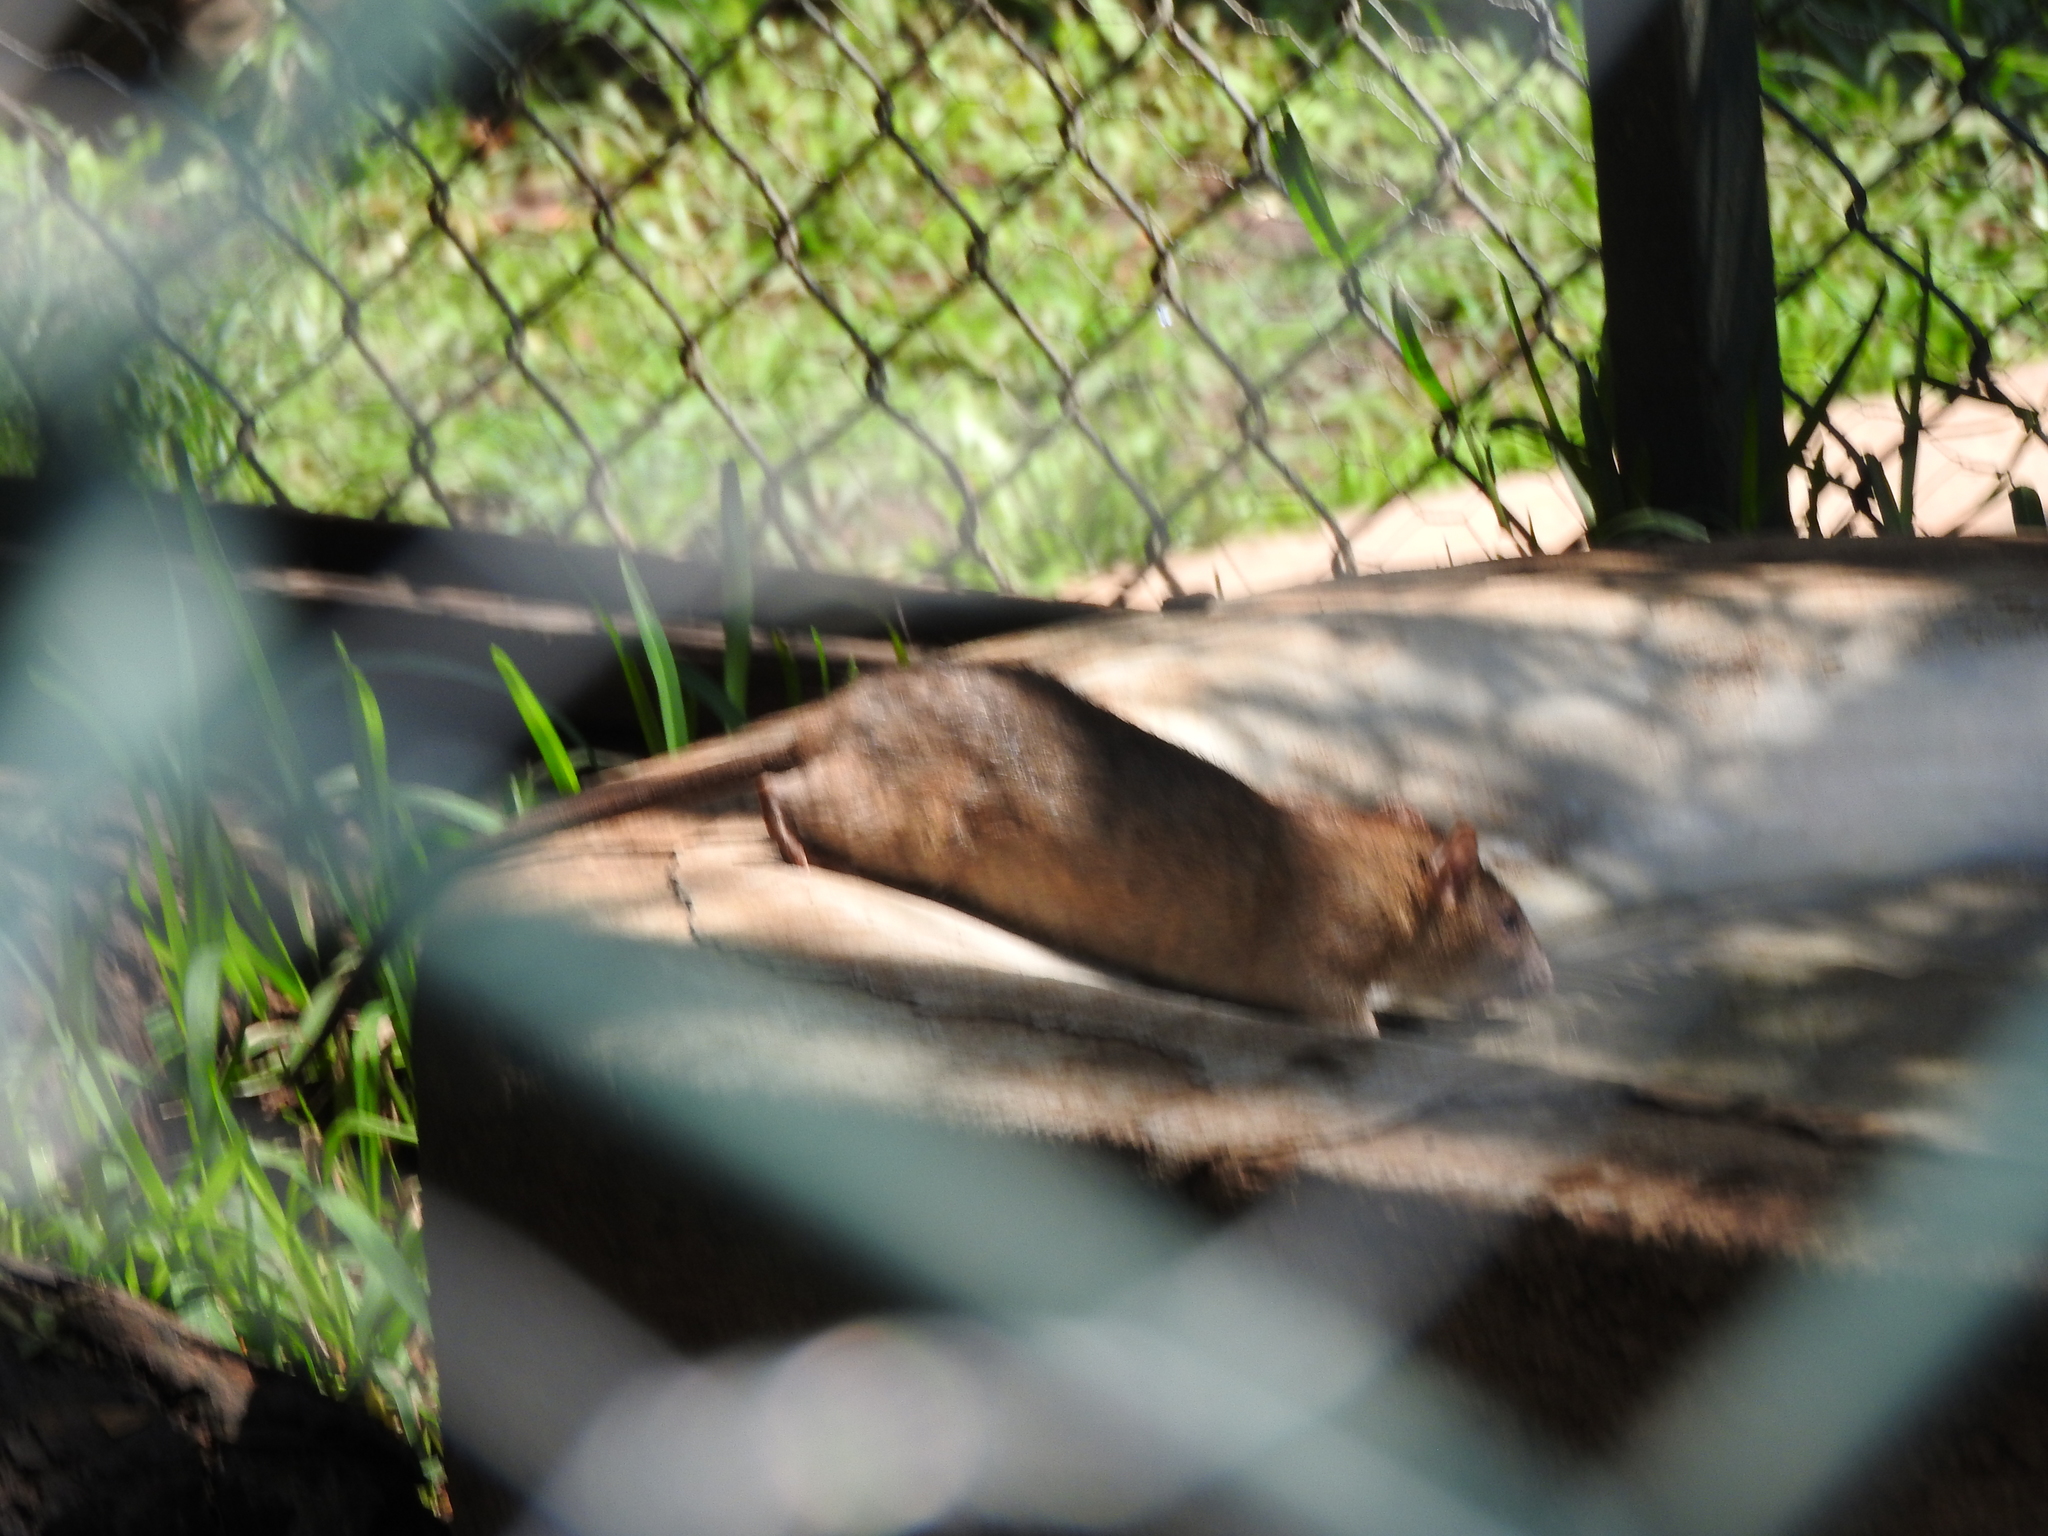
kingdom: Animalia
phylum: Chordata
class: Mammalia
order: Rodentia
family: Muridae
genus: Rattus
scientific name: Rattus norvegicus
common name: Brown rat
